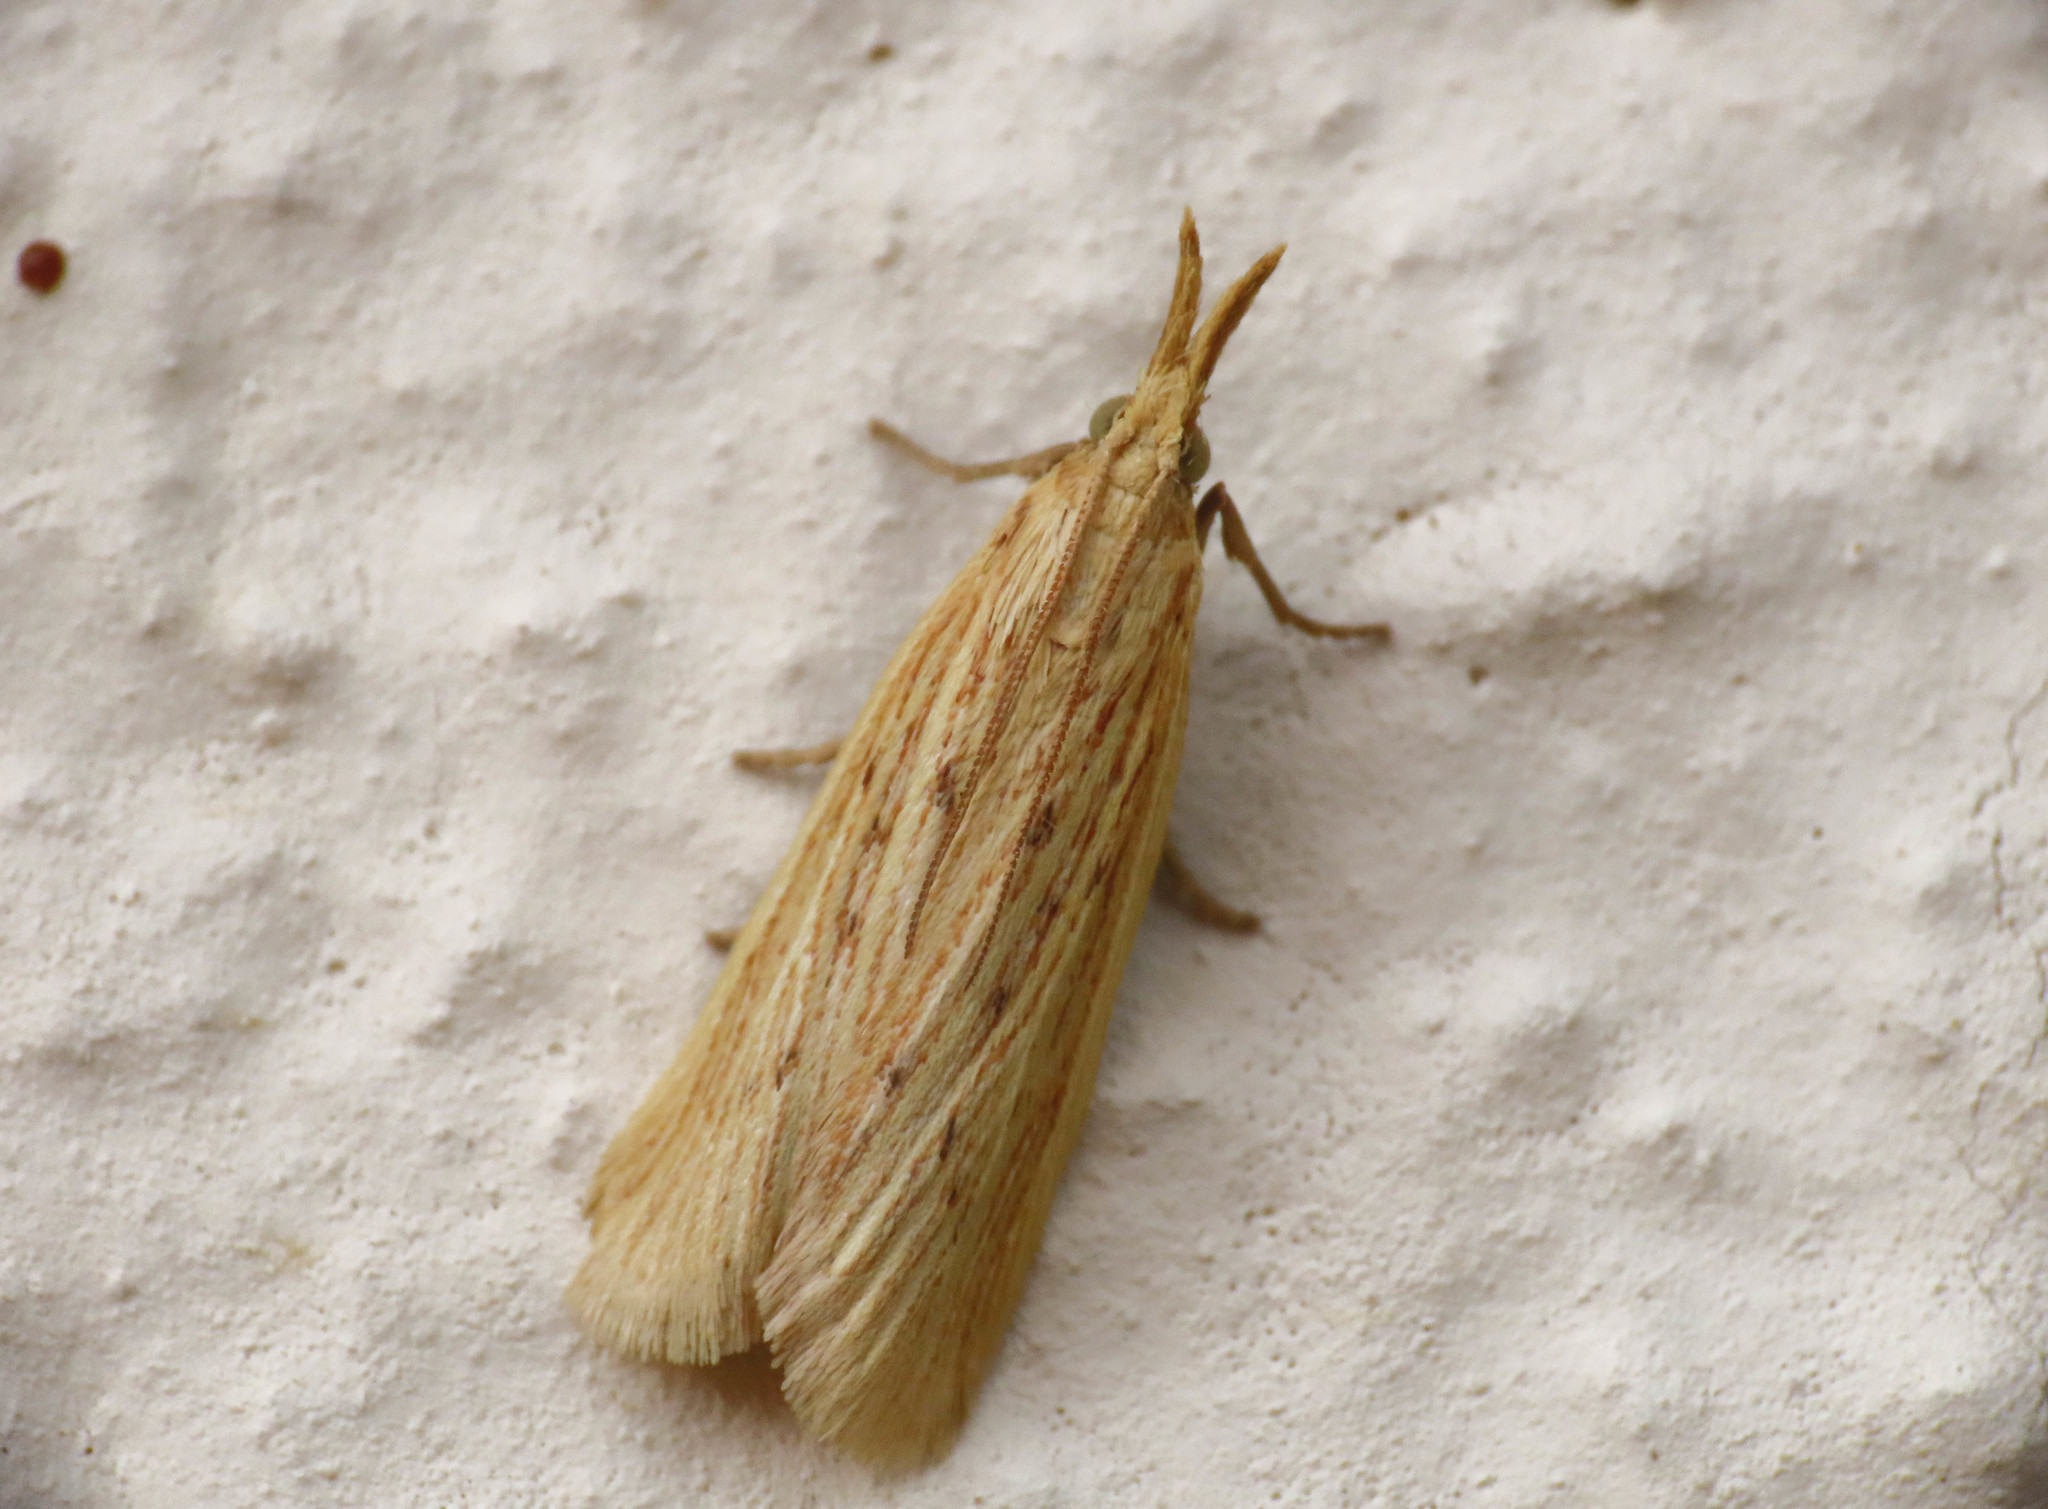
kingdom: Animalia
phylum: Arthropoda
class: Insecta
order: Lepidoptera
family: Pyralidae
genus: Ematheudes
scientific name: Ematheudes punctellus
